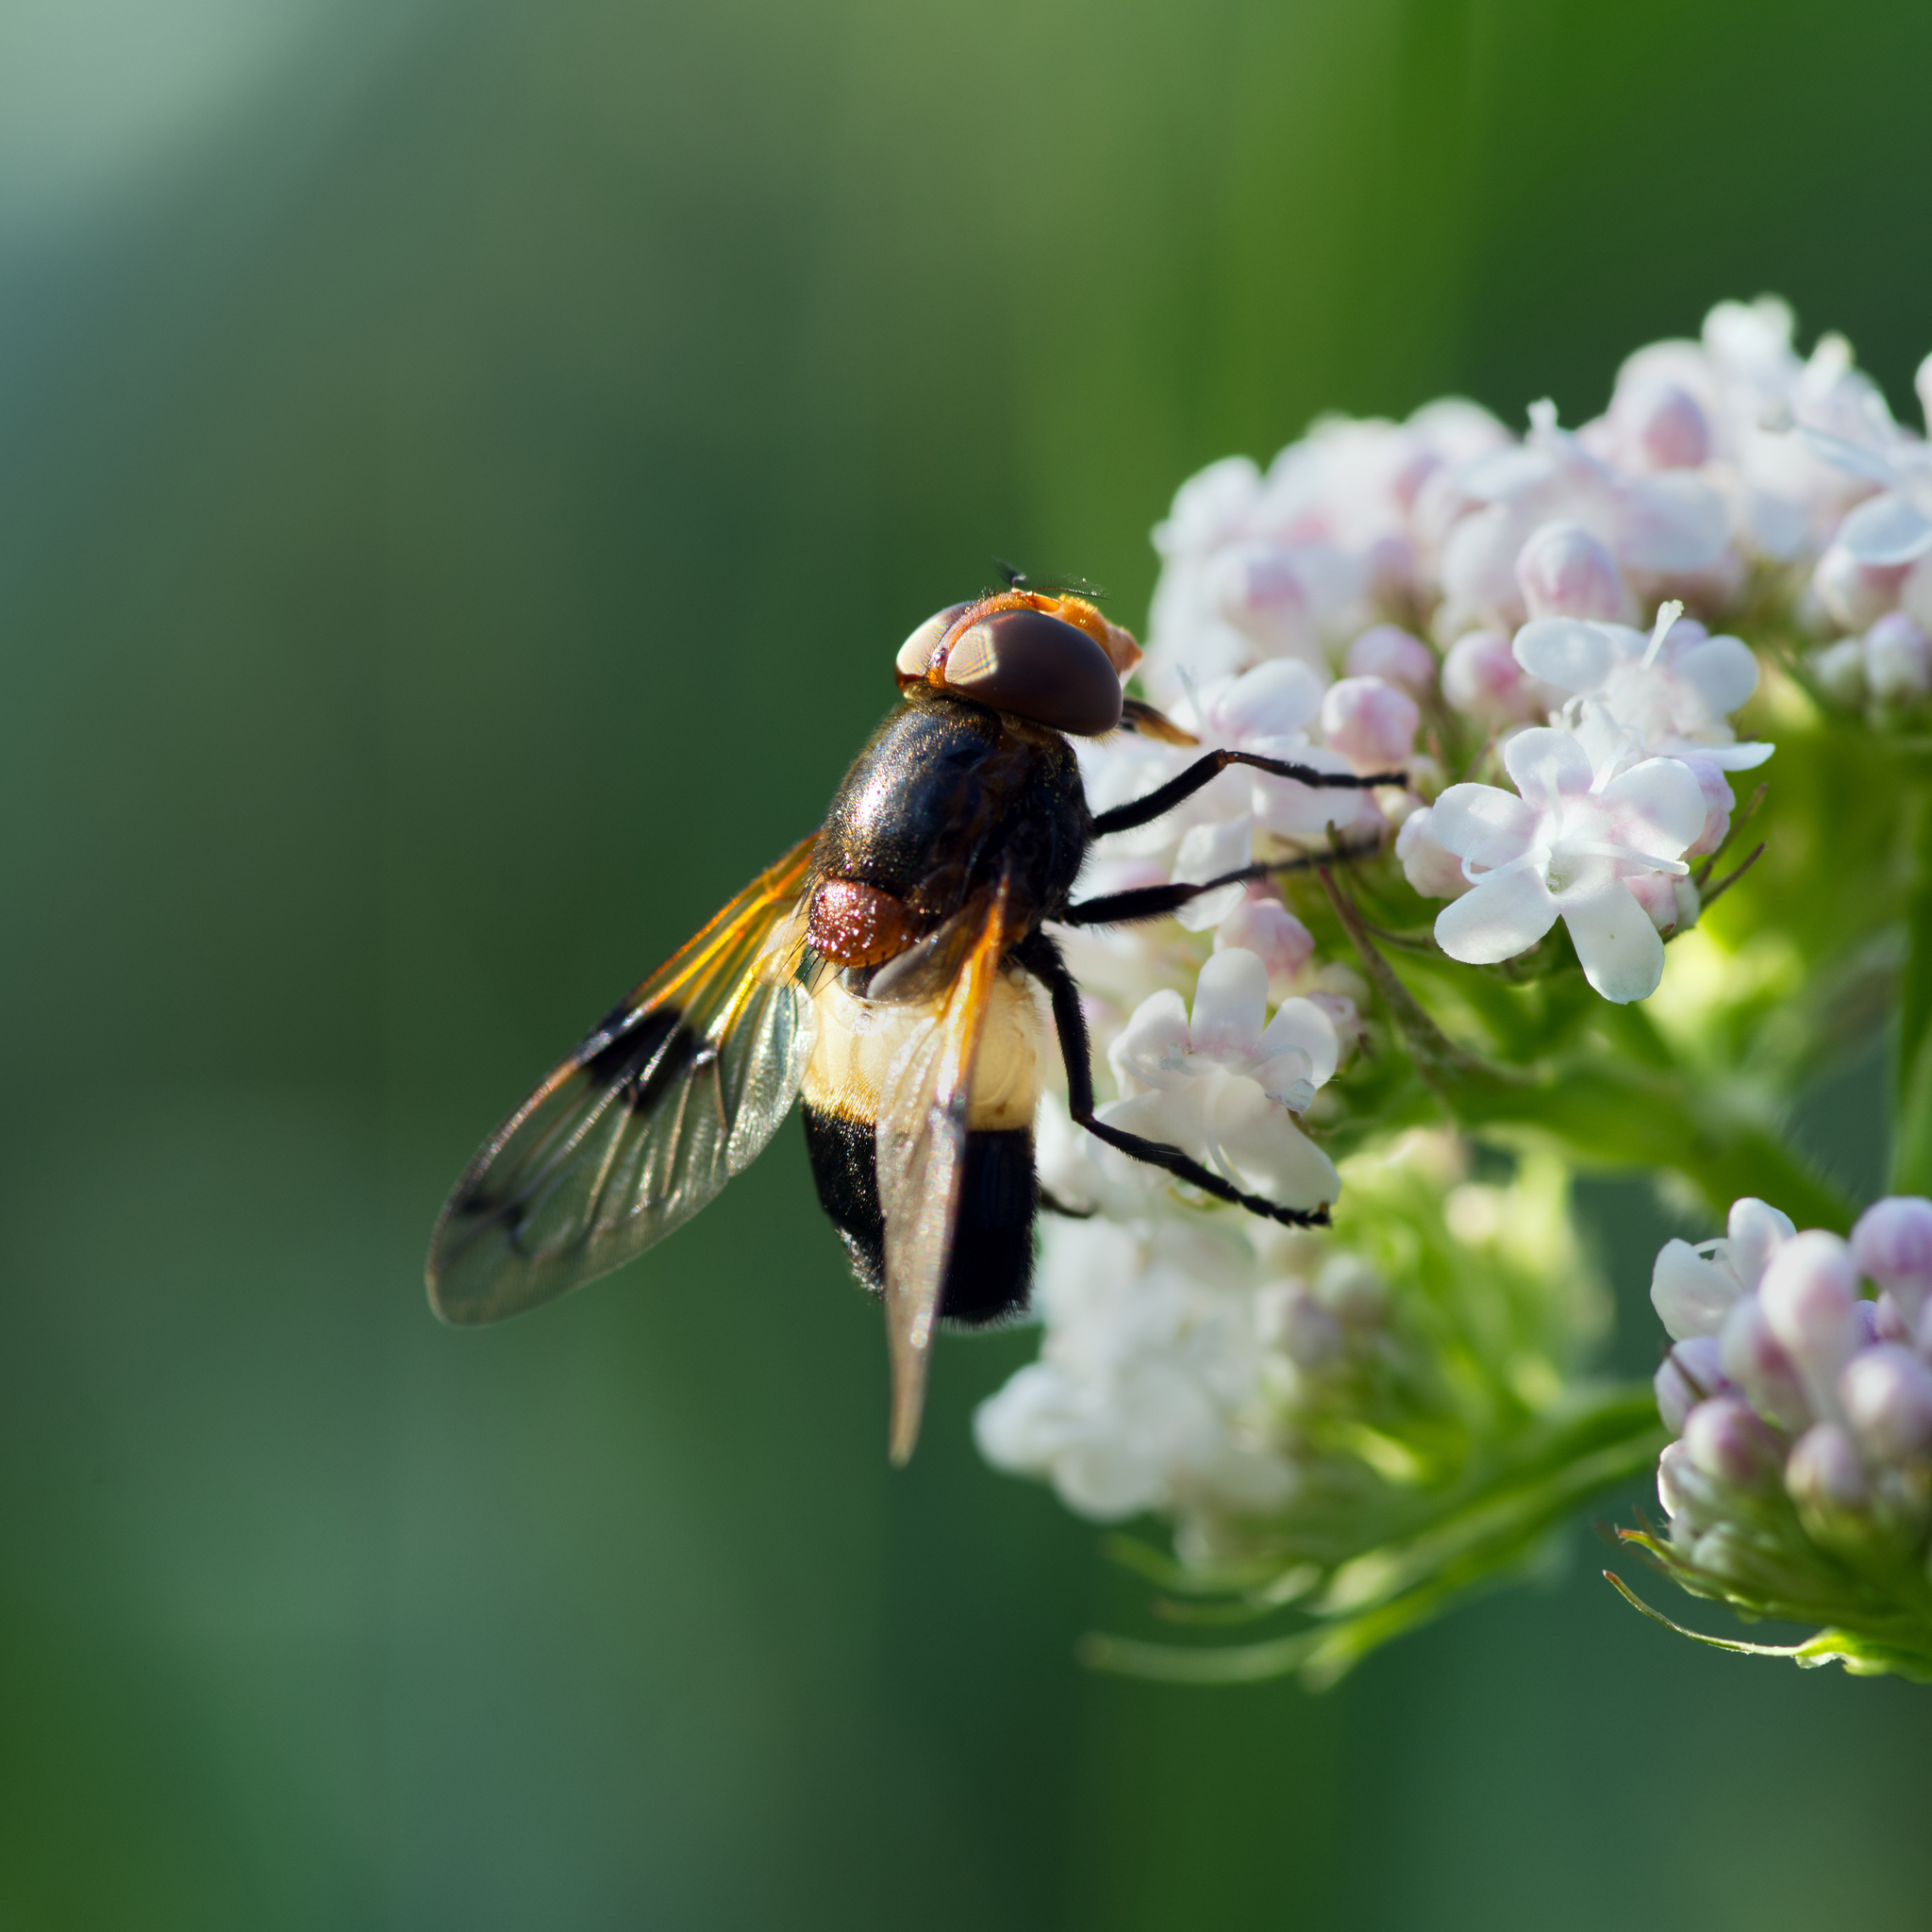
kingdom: Animalia
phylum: Arthropoda
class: Insecta
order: Diptera
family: Syrphidae
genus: Volucella
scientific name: Volucella pellucens
